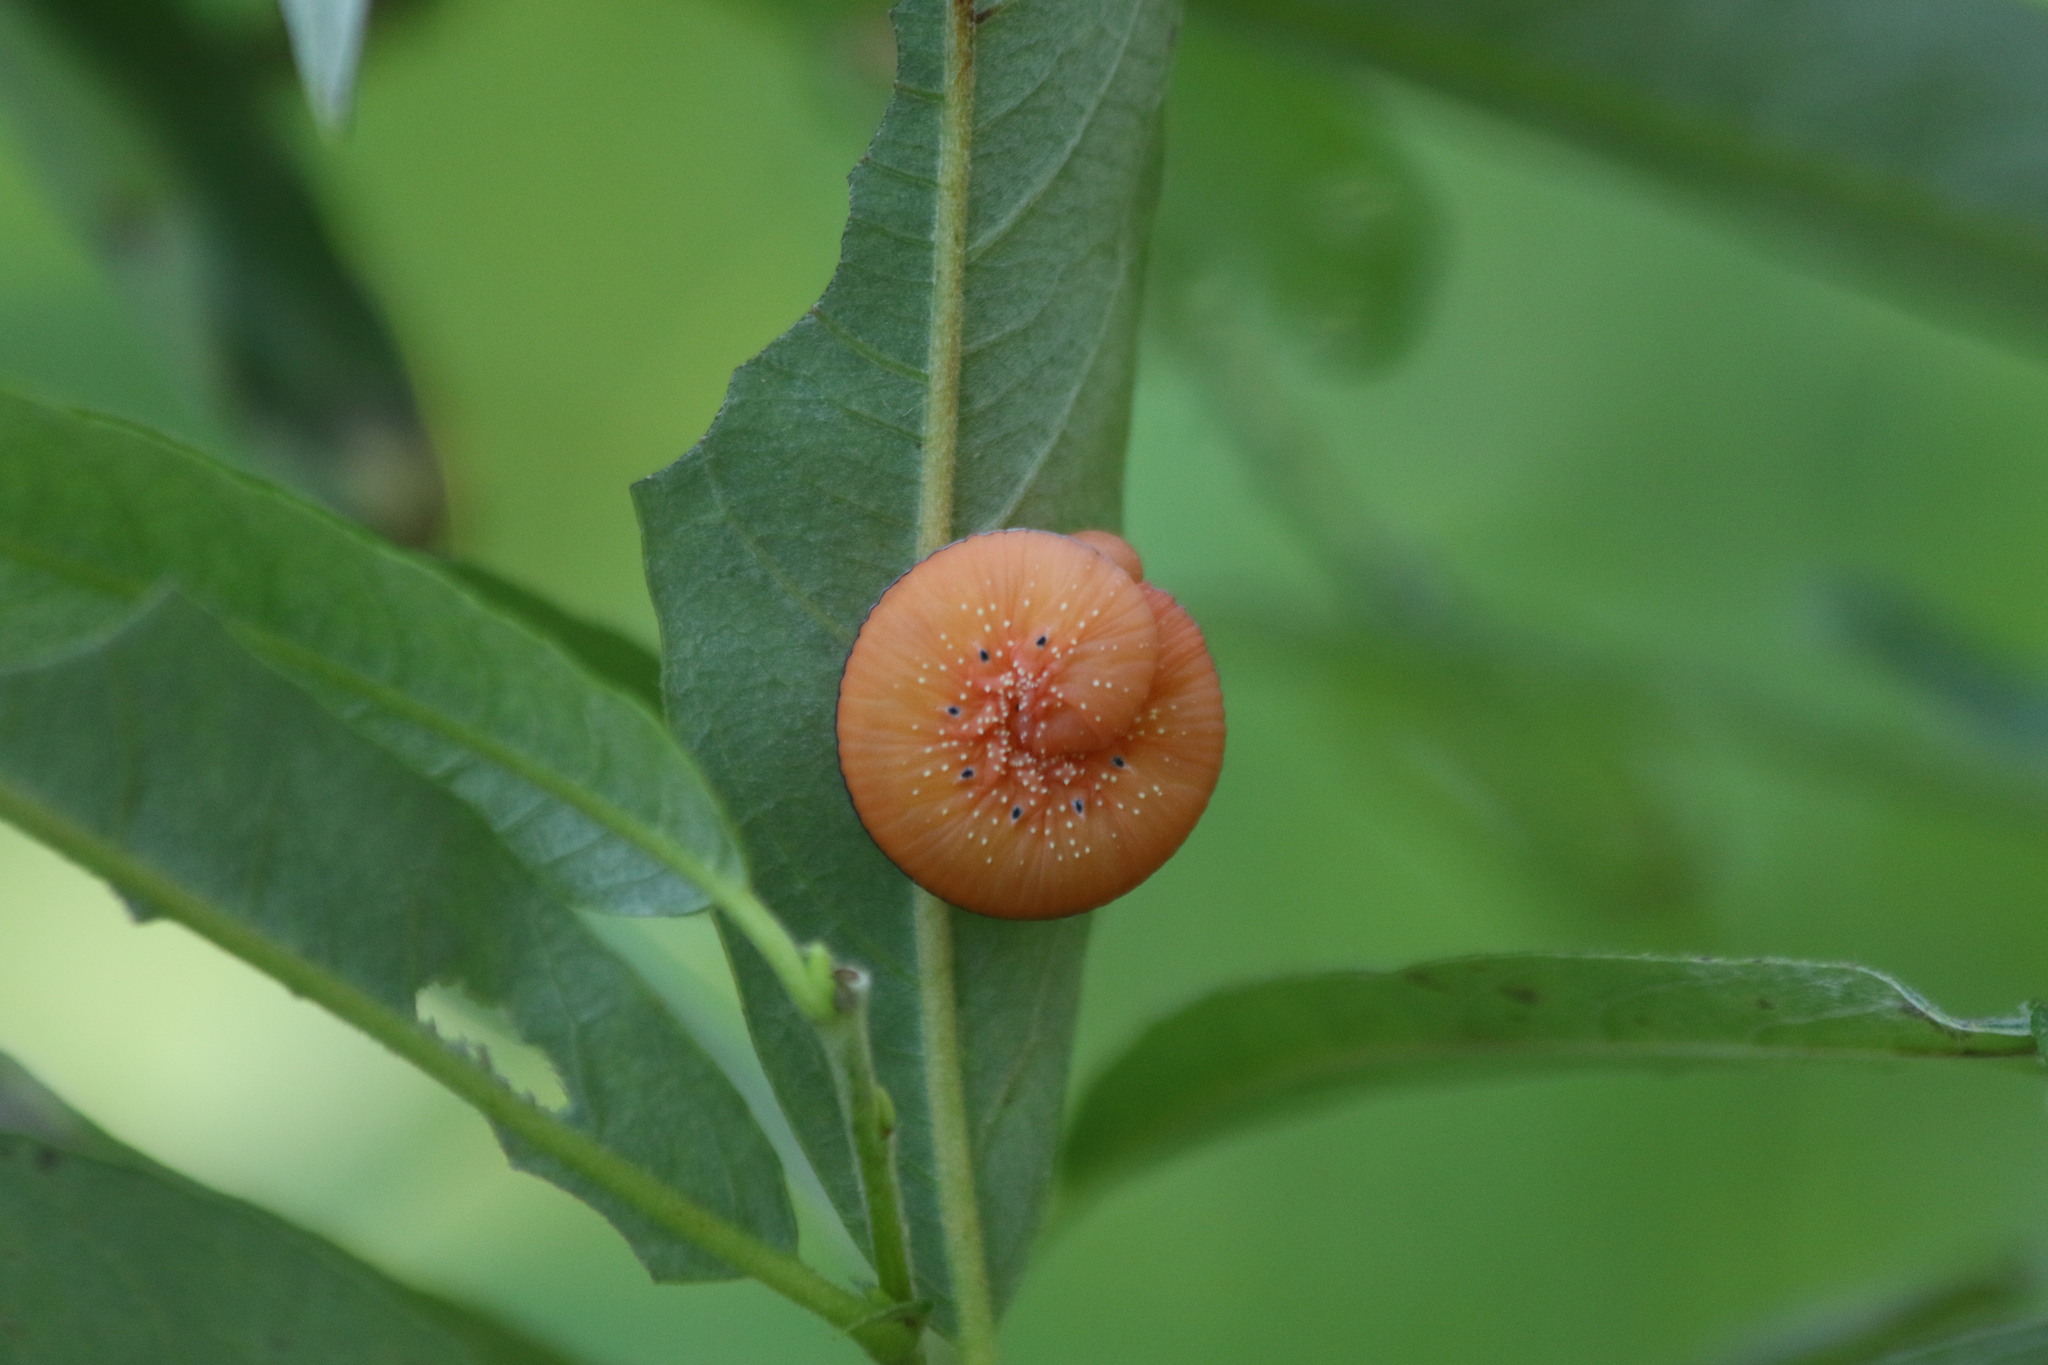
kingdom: Animalia
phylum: Arthropoda
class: Insecta
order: Hymenoptera
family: Cimbicidae
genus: Cimbex
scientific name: Cimbex luteus
